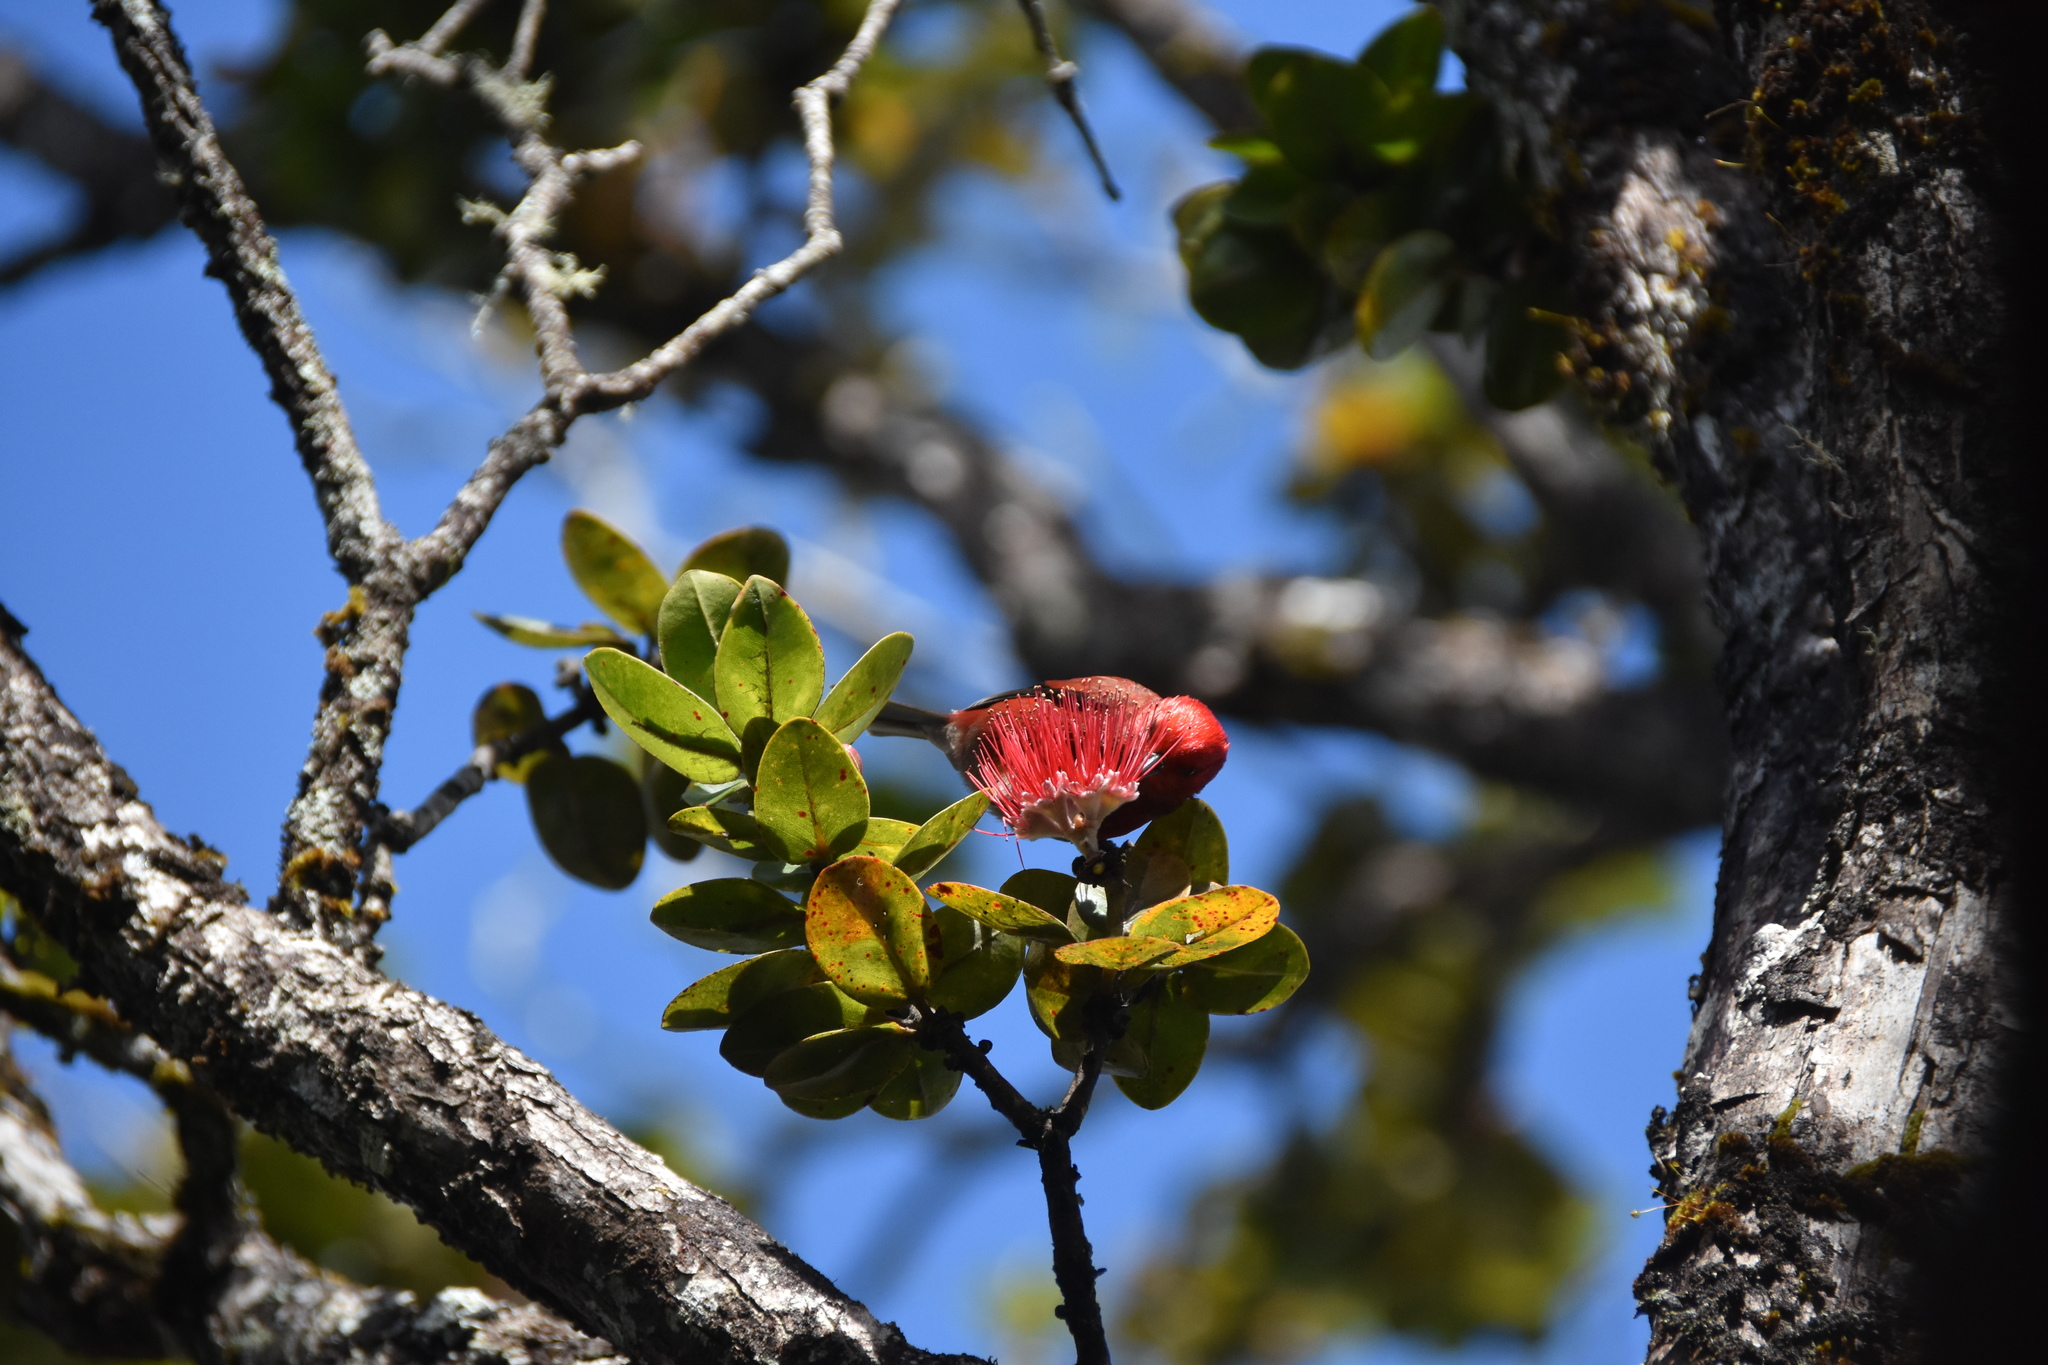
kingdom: Animalia
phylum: Chordata
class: Aves
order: Passeriformes
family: Fringillidae
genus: Himatione
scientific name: Himatione sanguinea
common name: Apapane
